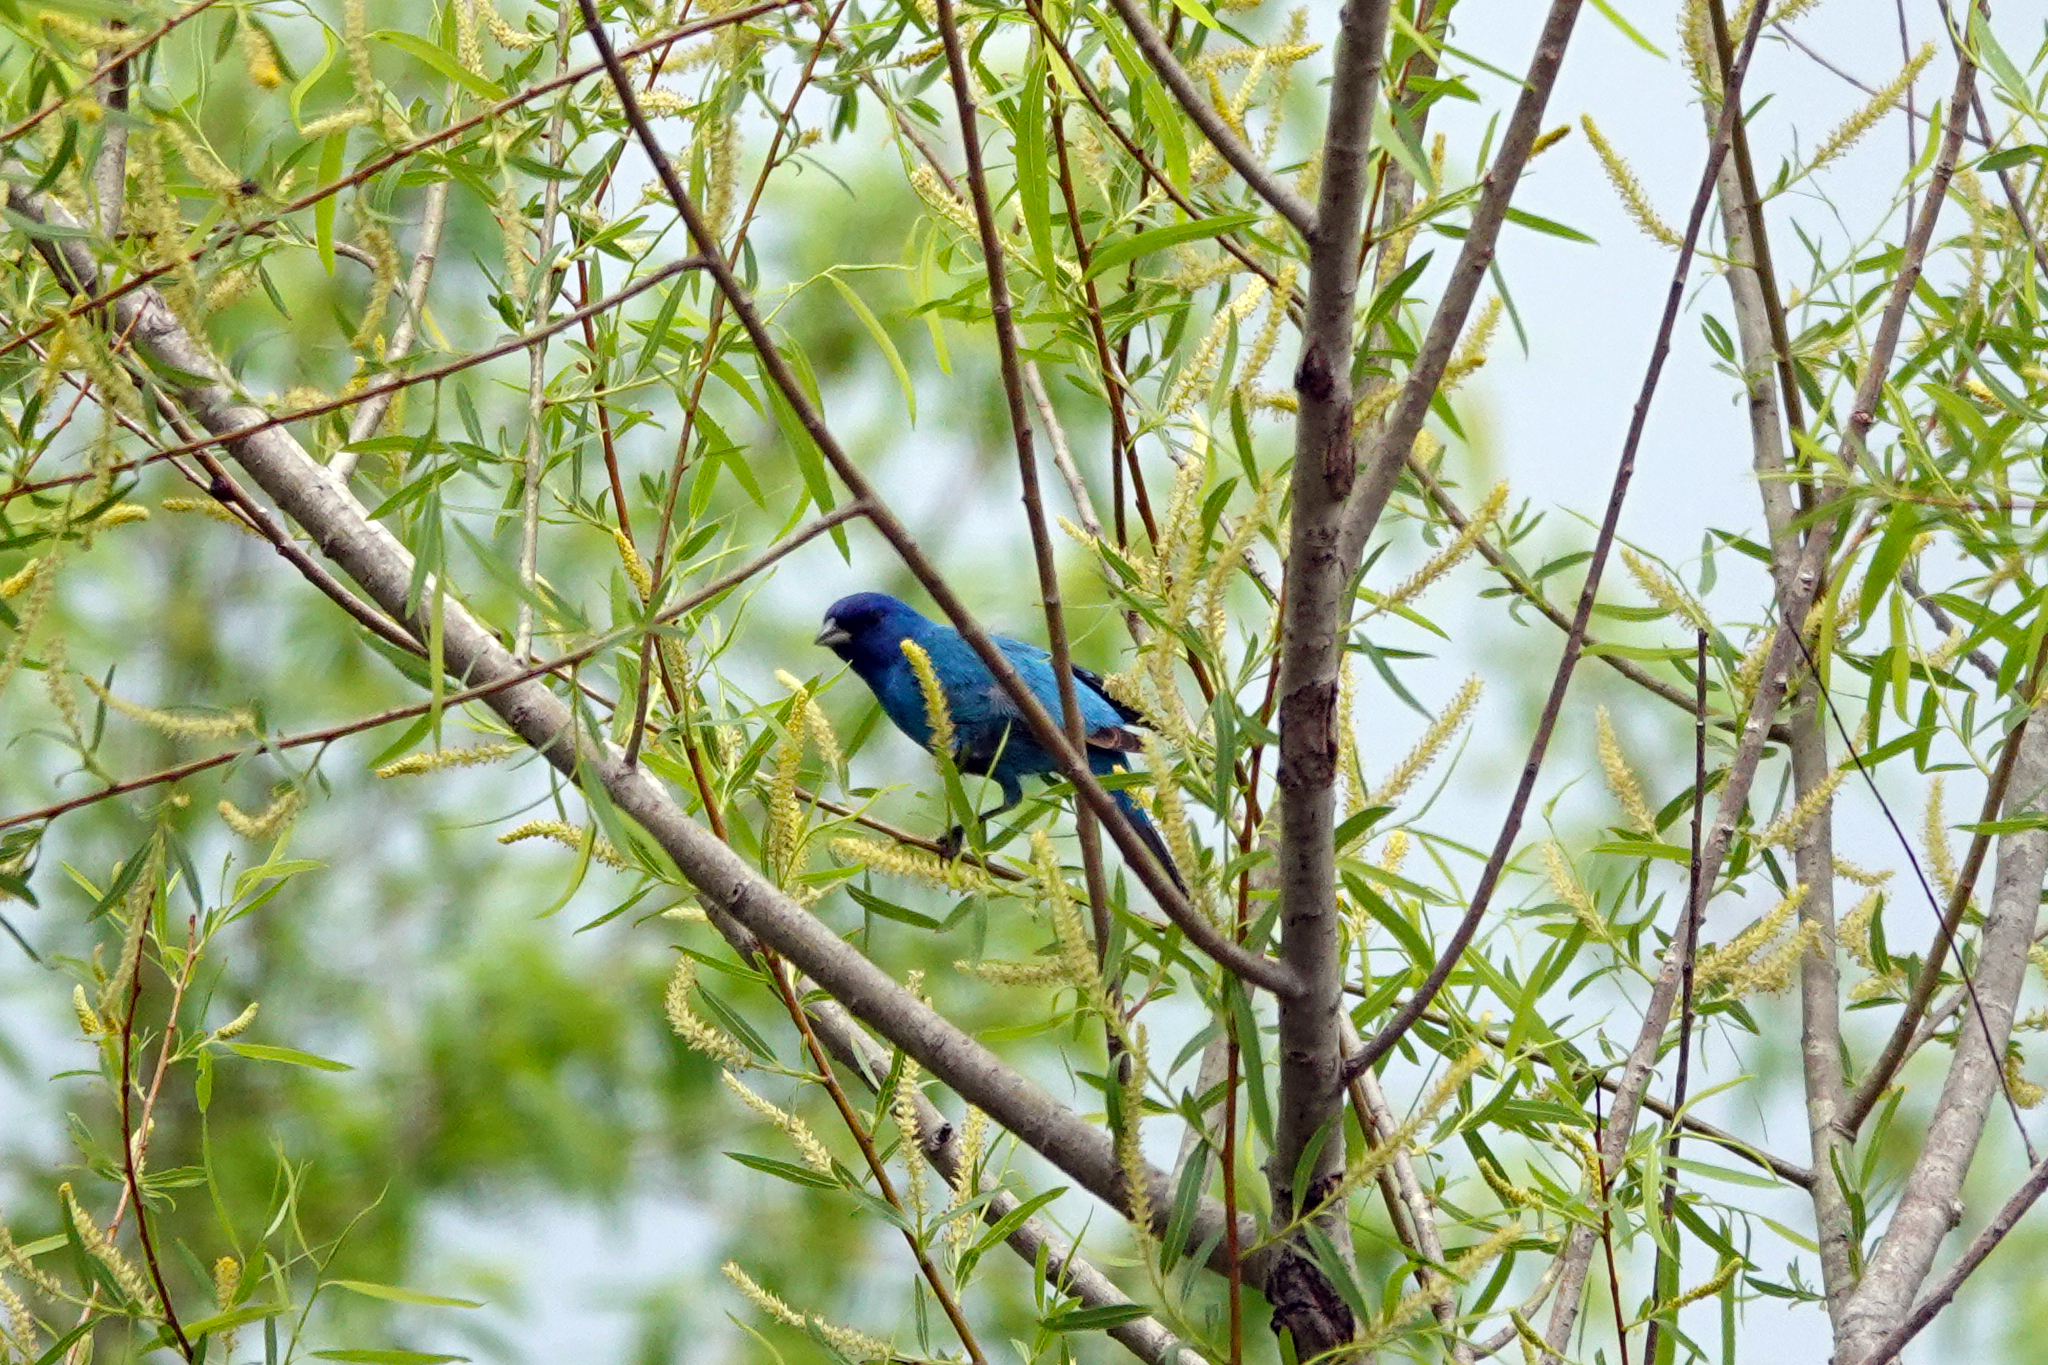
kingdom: Animalia
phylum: Chordata
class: Aves
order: Passeriformes
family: Cardinalidae
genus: Passerina
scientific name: Passerina cyanea
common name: Indigo bunting
